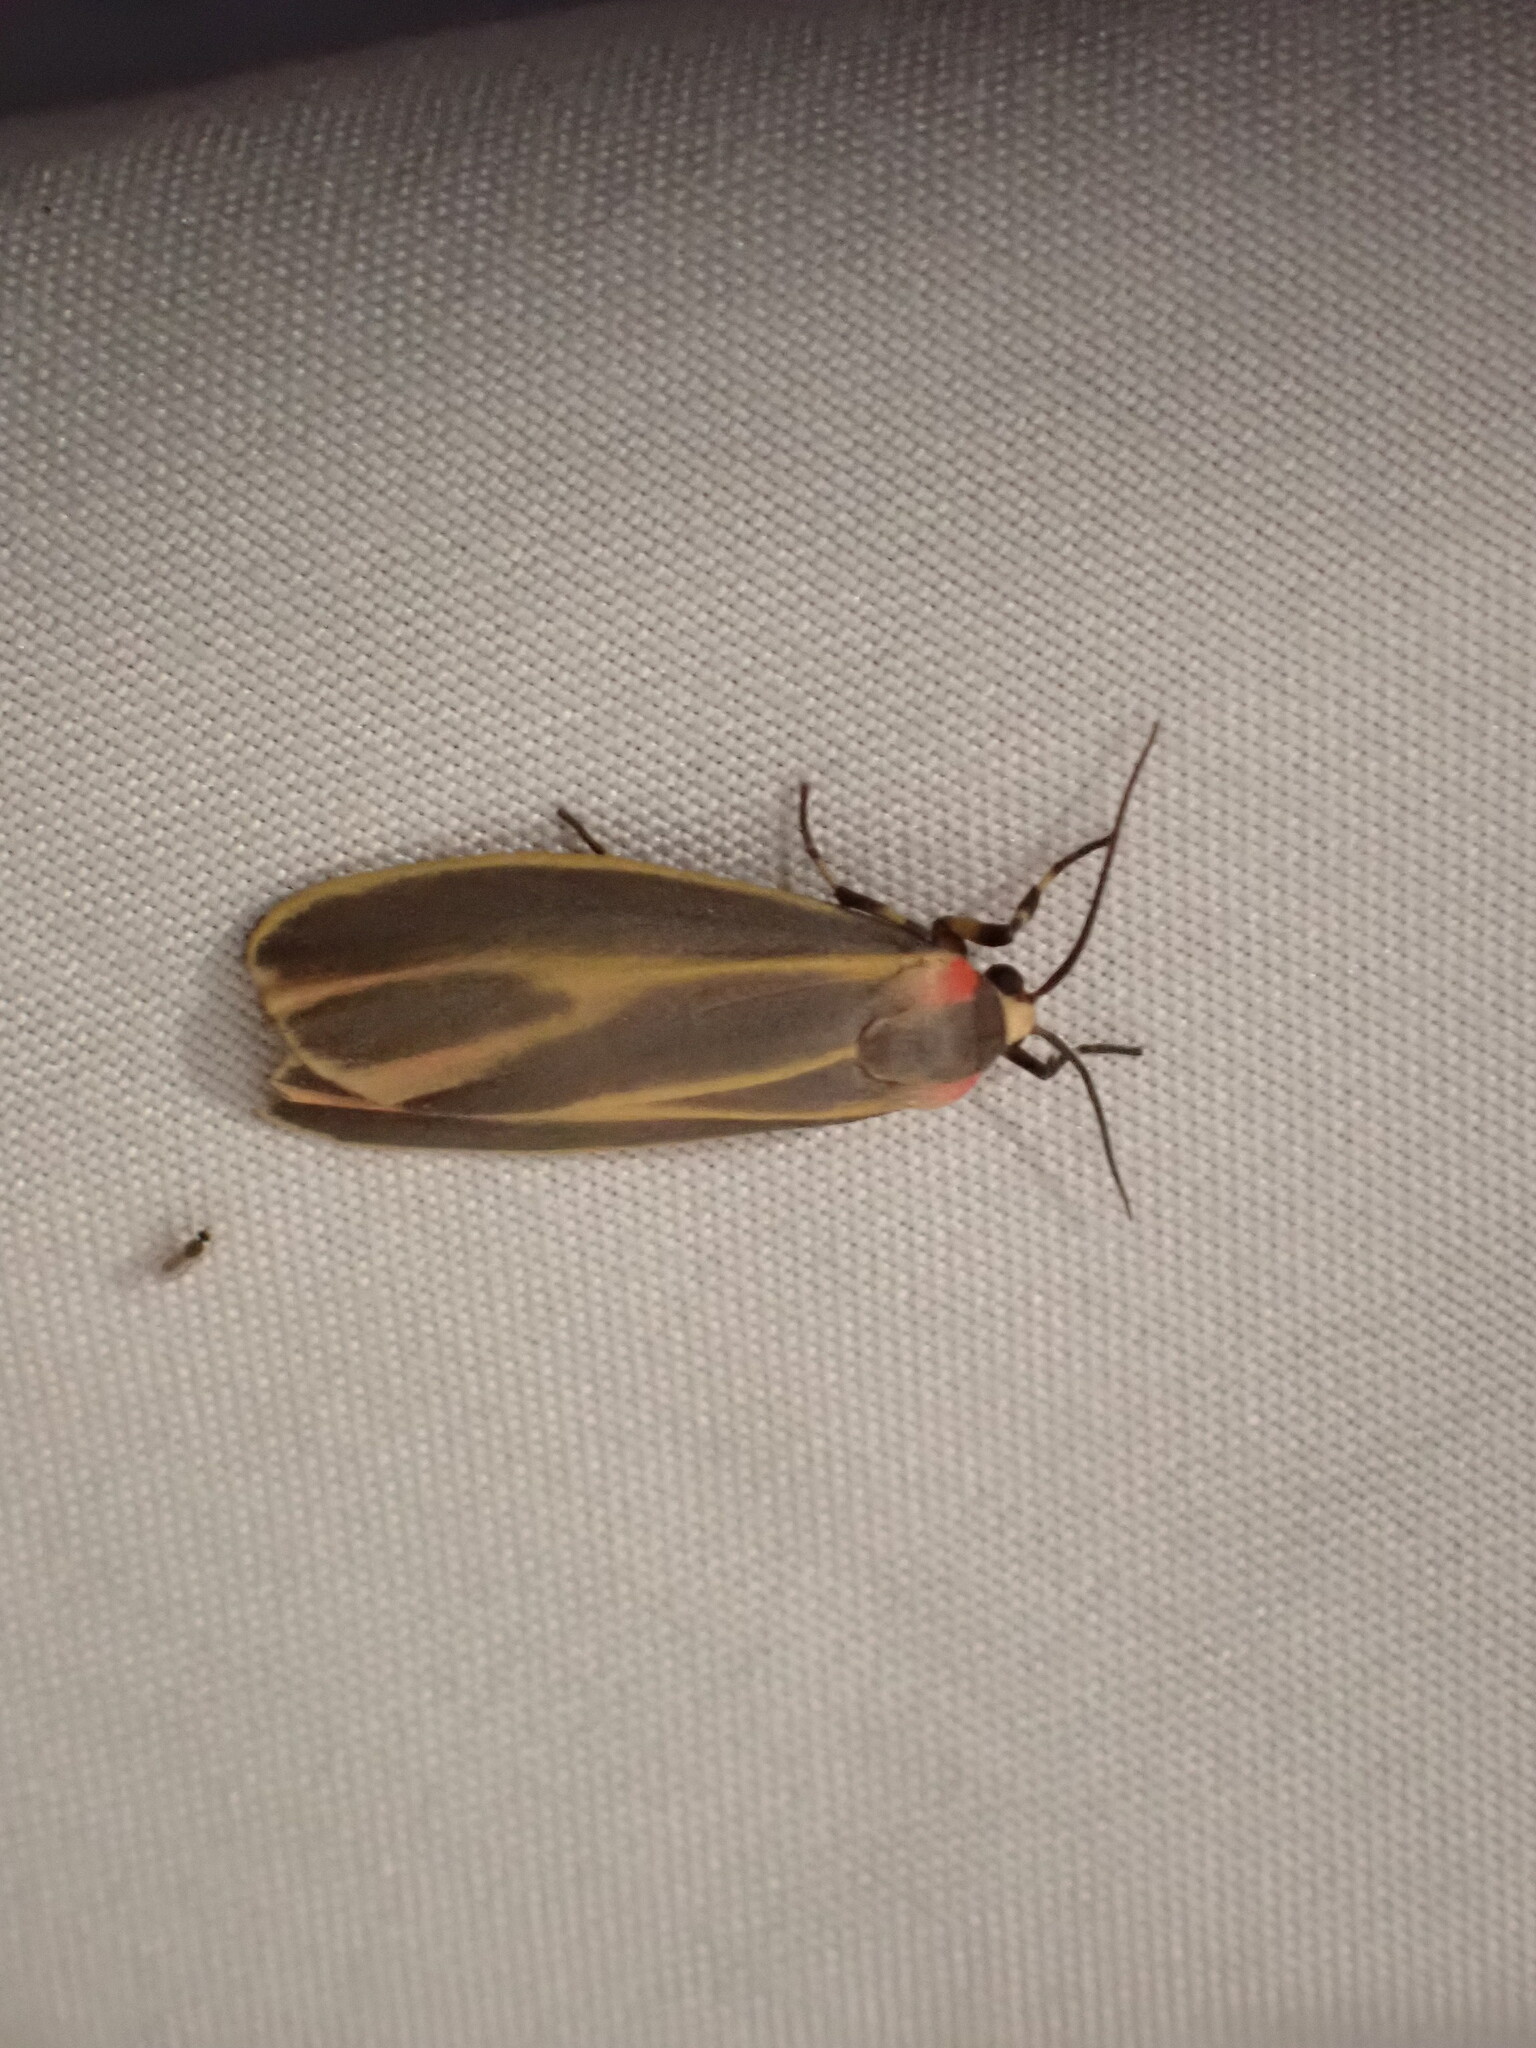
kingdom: Animalia
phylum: Arthropoda
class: Insecta
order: Lepidoptera
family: Erebidae
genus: Hypoprepia
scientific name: Hypoprepia fucosa
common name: Painted lichen moth
